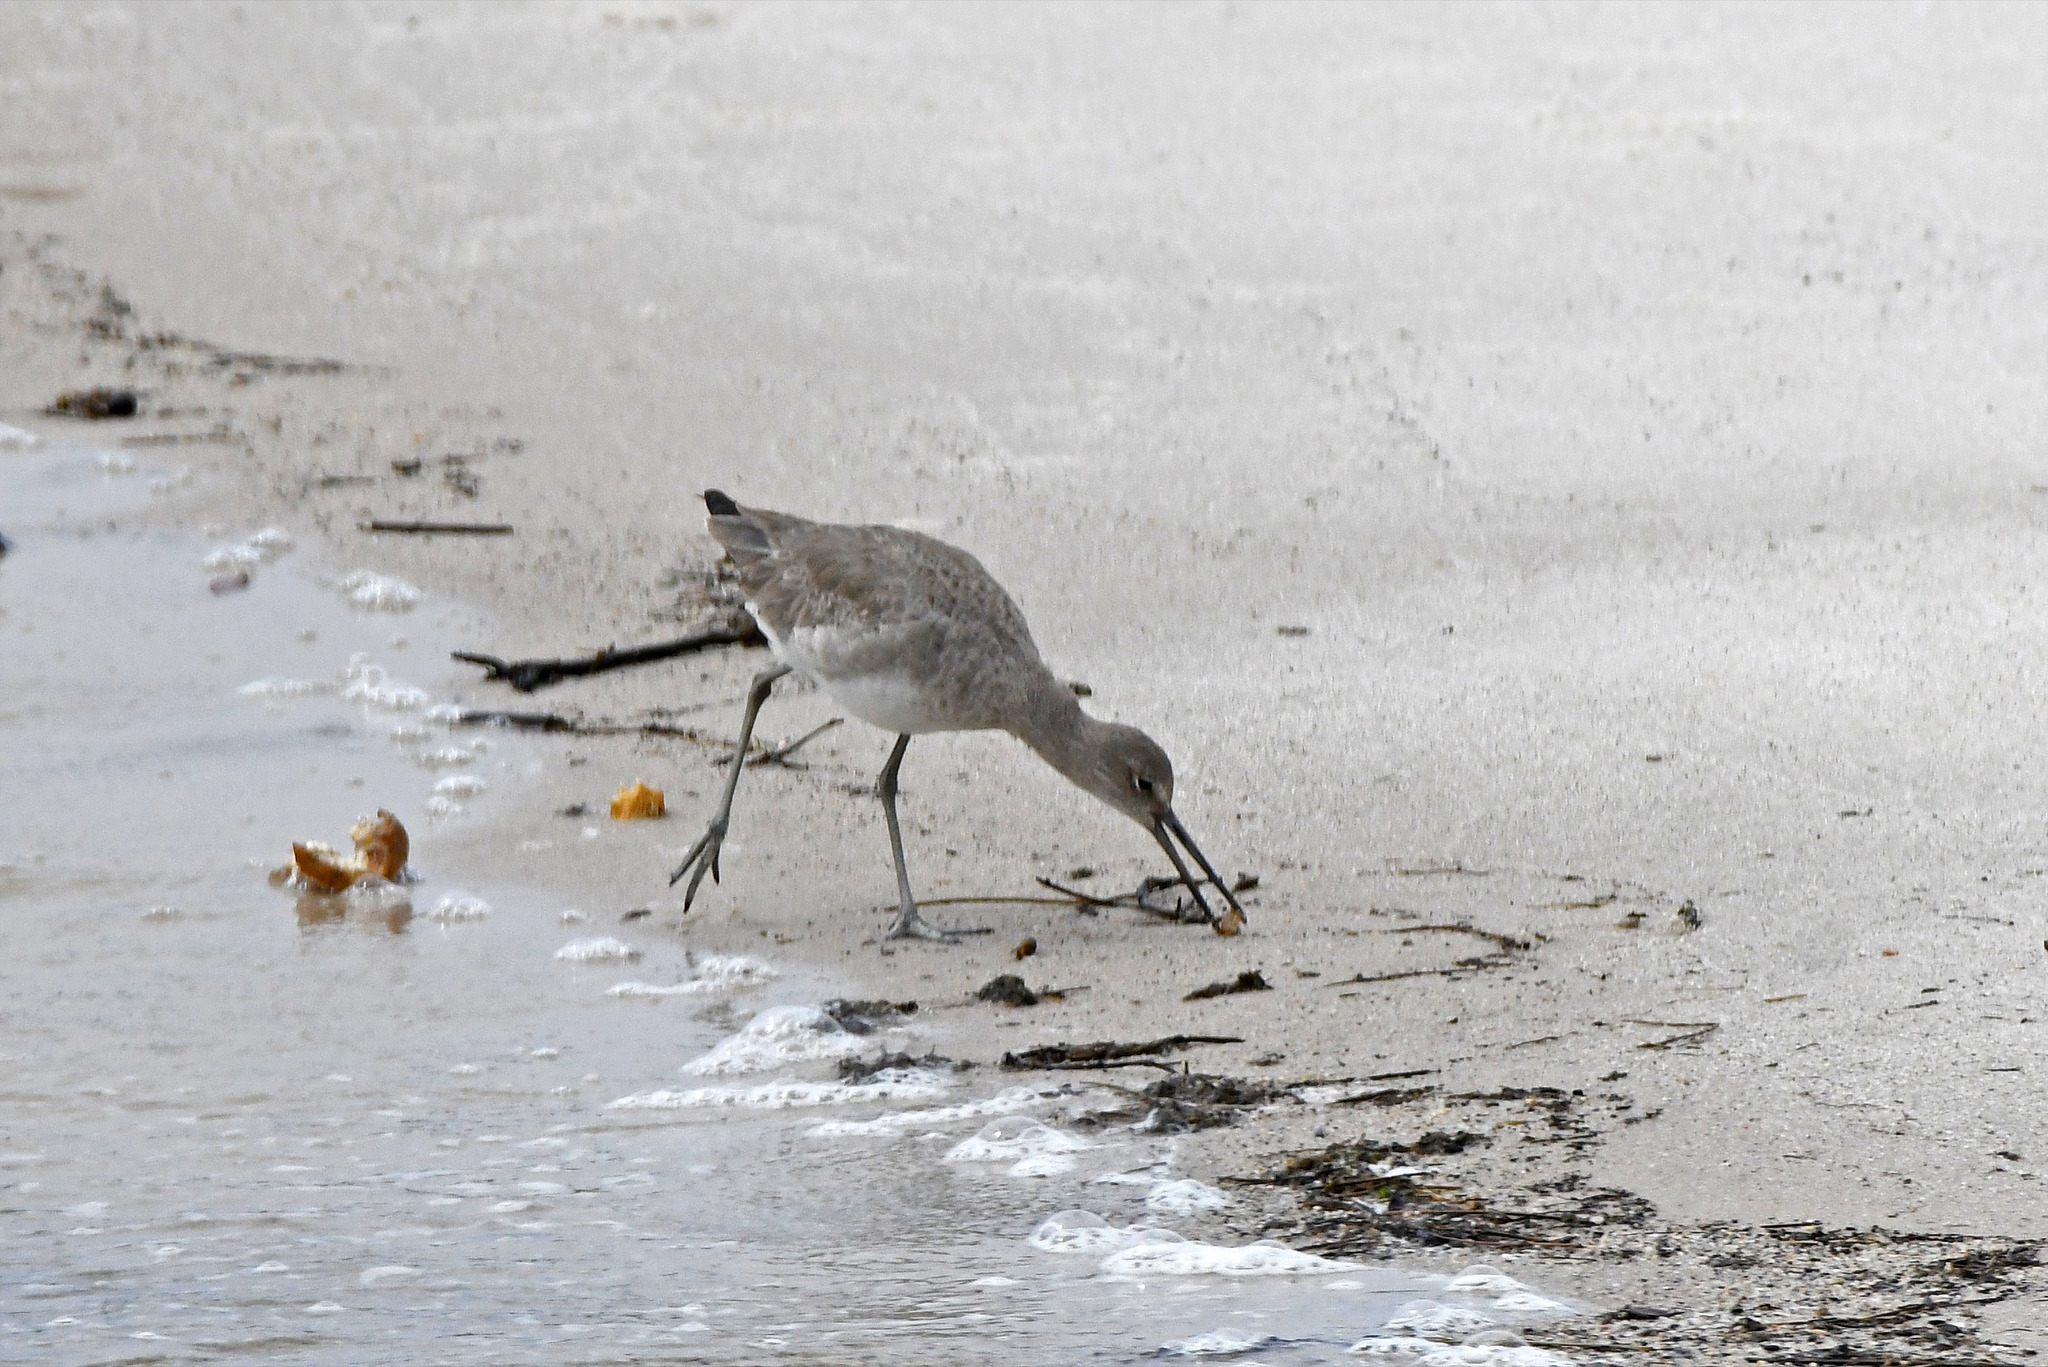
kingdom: Animalia
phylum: Chordata
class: Aves
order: Charadriiformes
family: Scolopacidae
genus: Tringa
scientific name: Tringa semipalmata
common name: Willet
